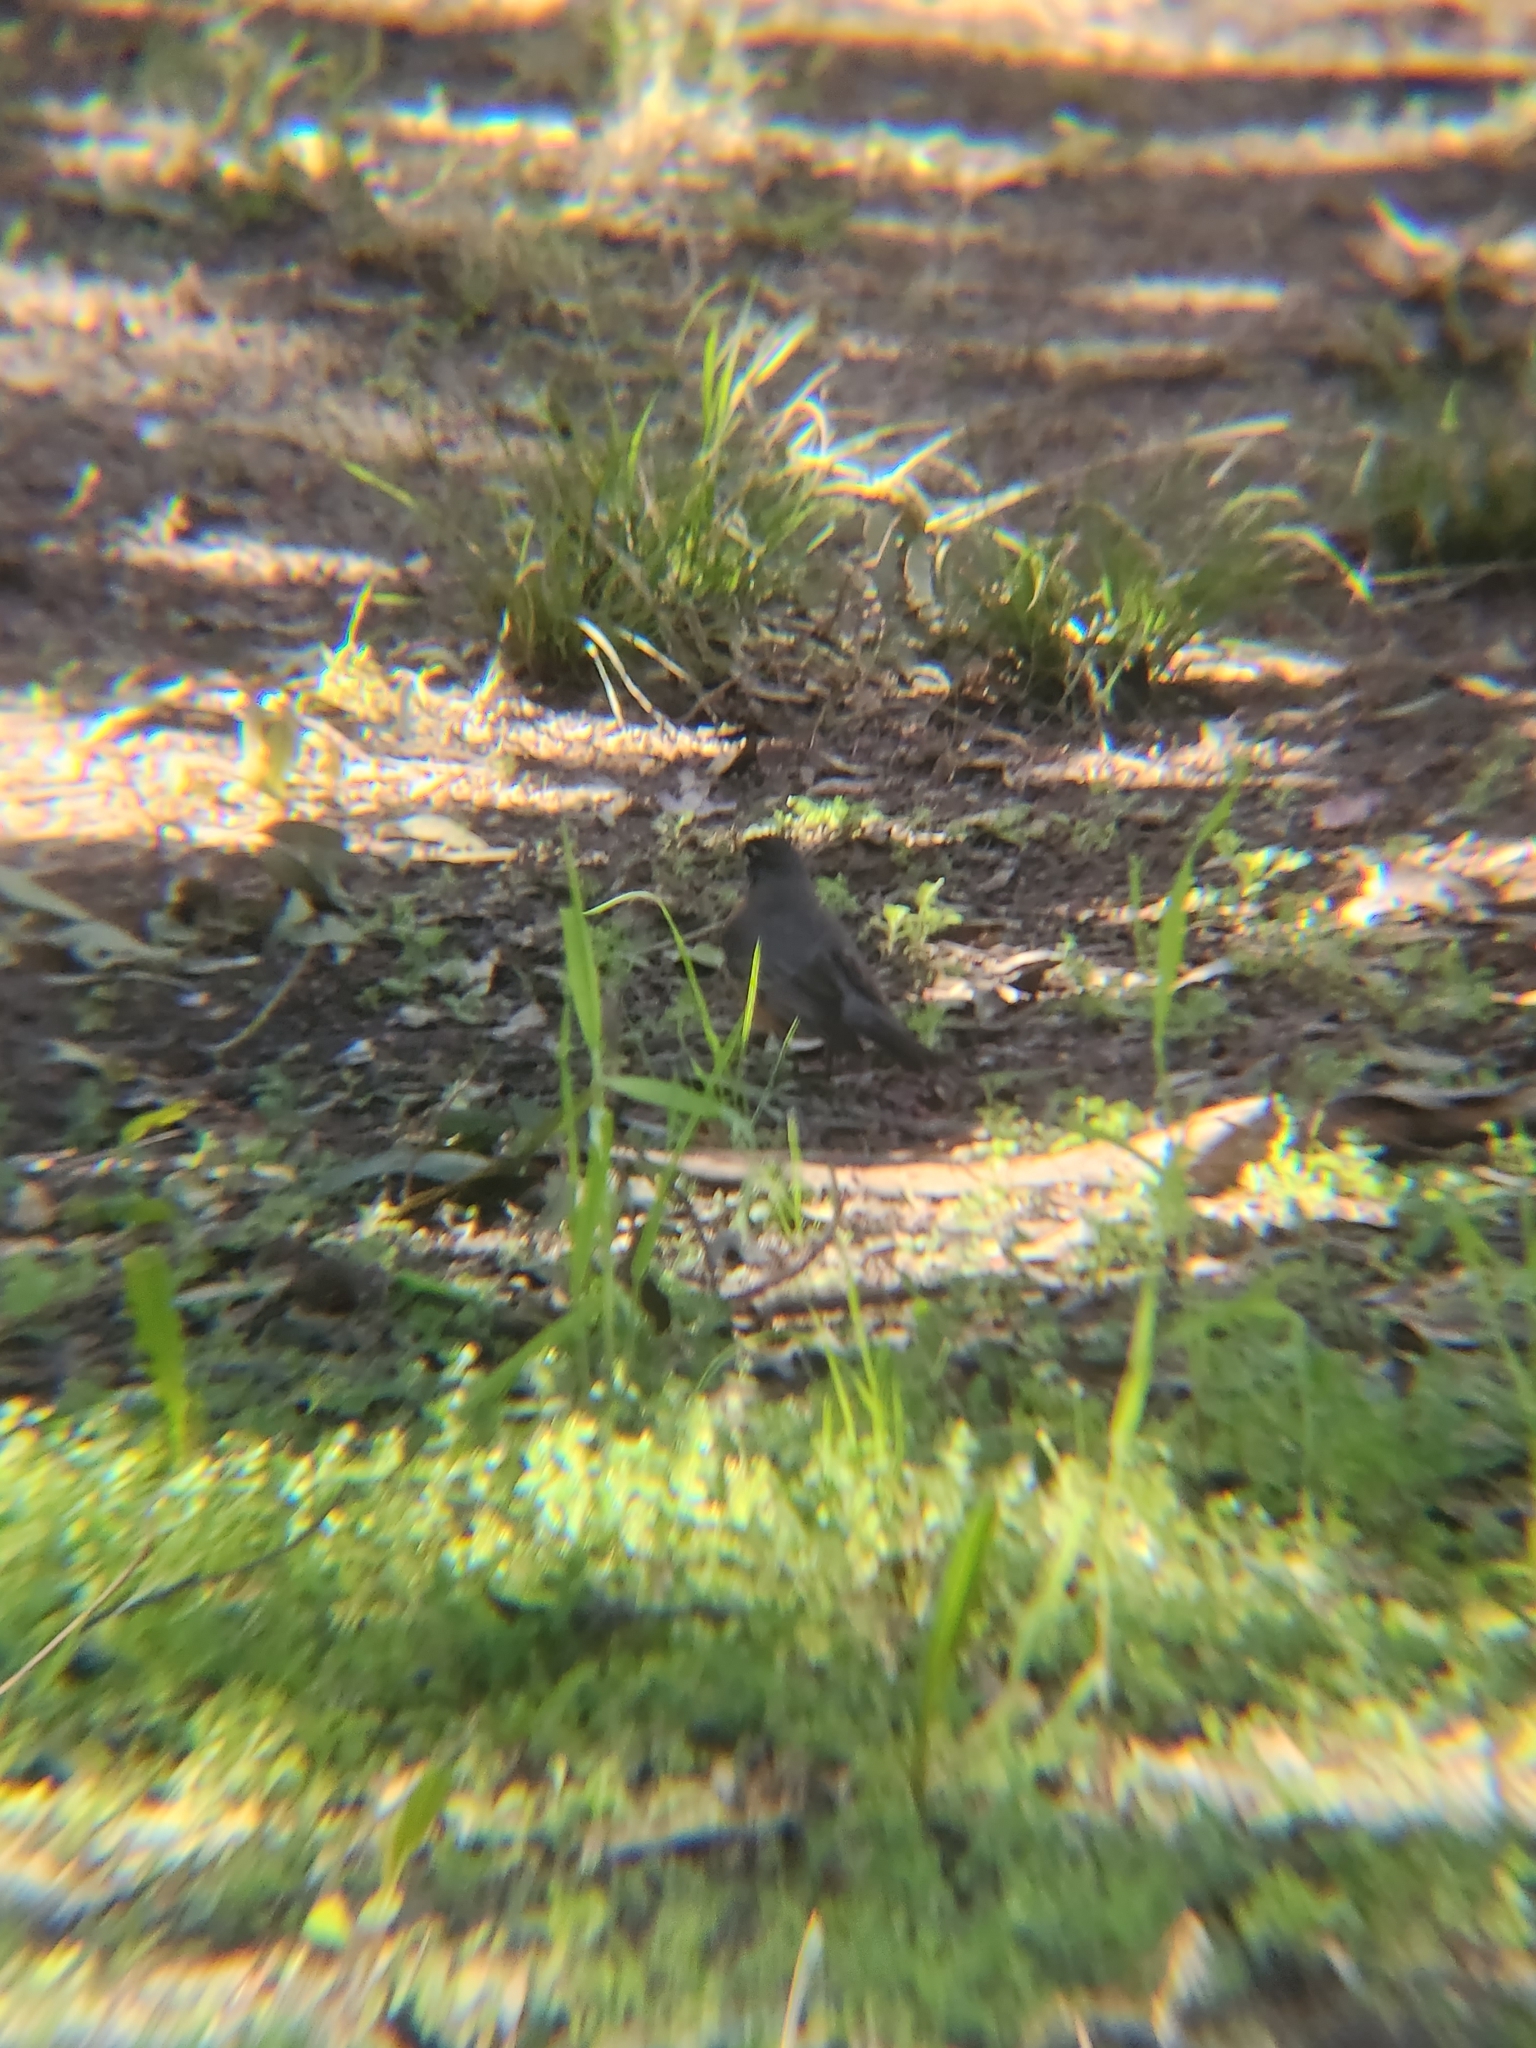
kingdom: Animalia
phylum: Chordata
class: Aves
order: Passeriformes
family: Turdidae
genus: Turdus
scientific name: Turdus migratorius
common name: American robin
